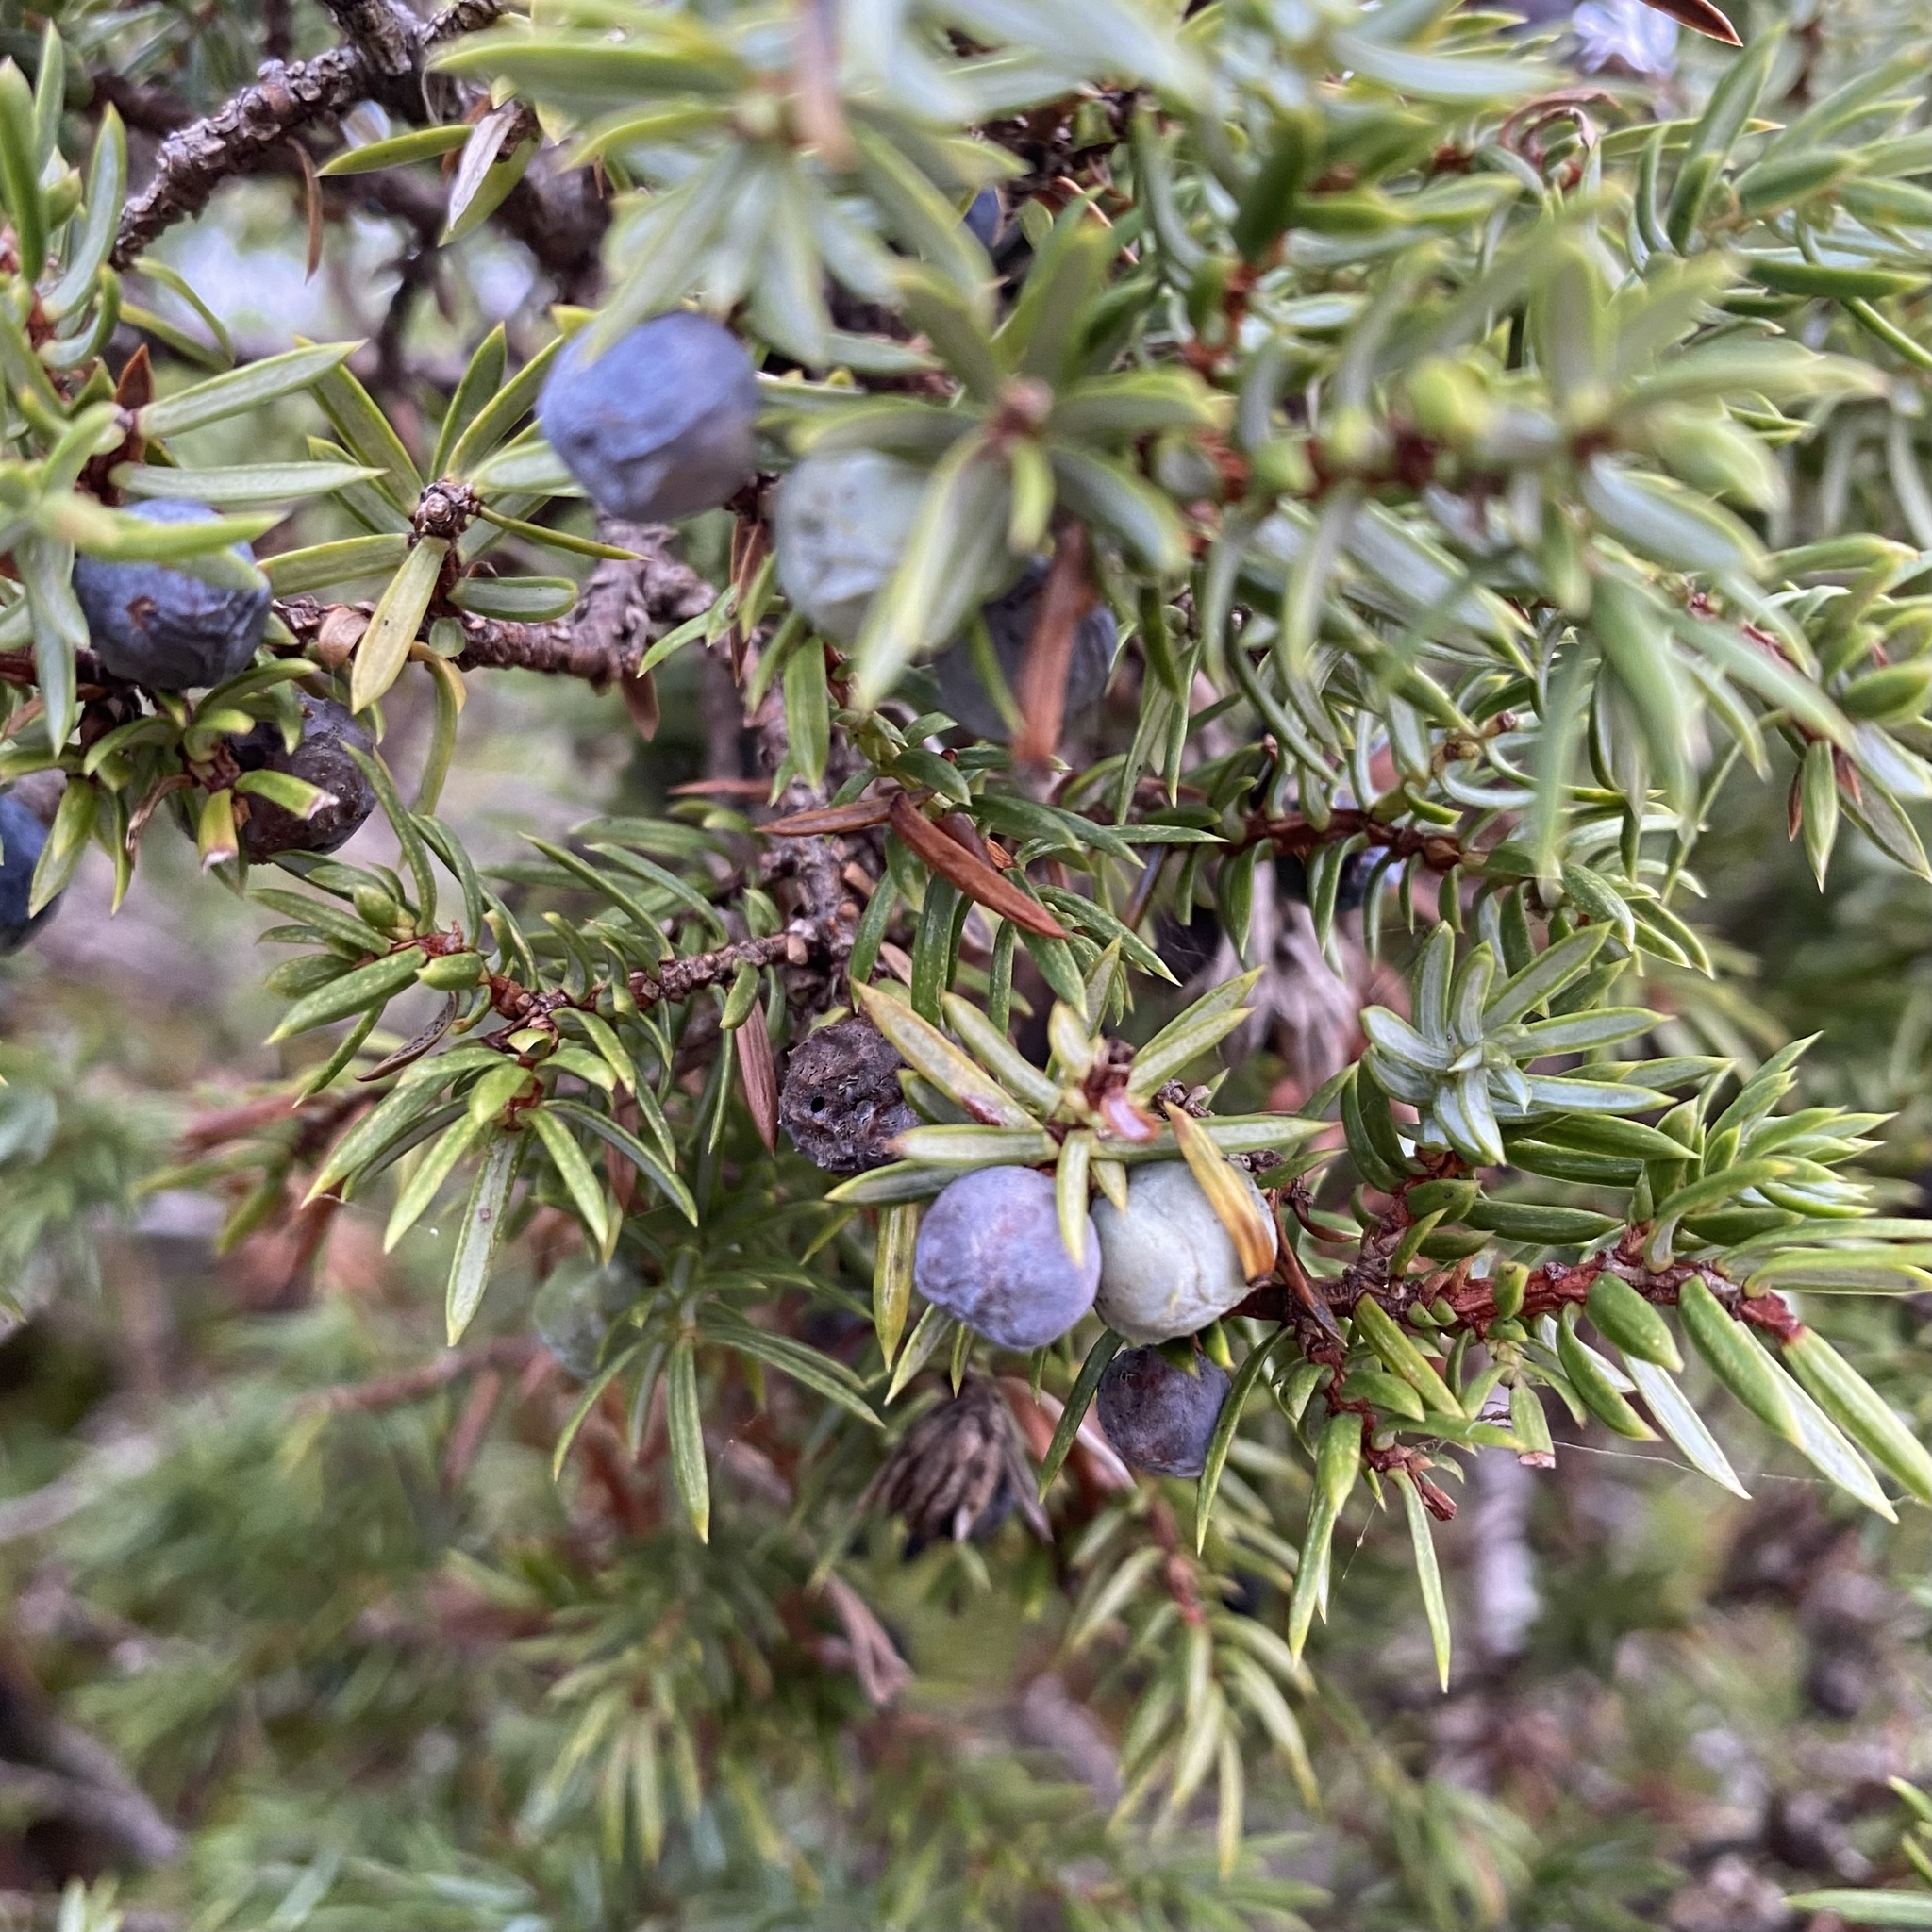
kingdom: Plantae
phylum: Tracheophyta
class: Pinopsida
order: Pinales
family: Cupressaceae
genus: Juniperus
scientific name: Juniperus communis
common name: Common juniper
